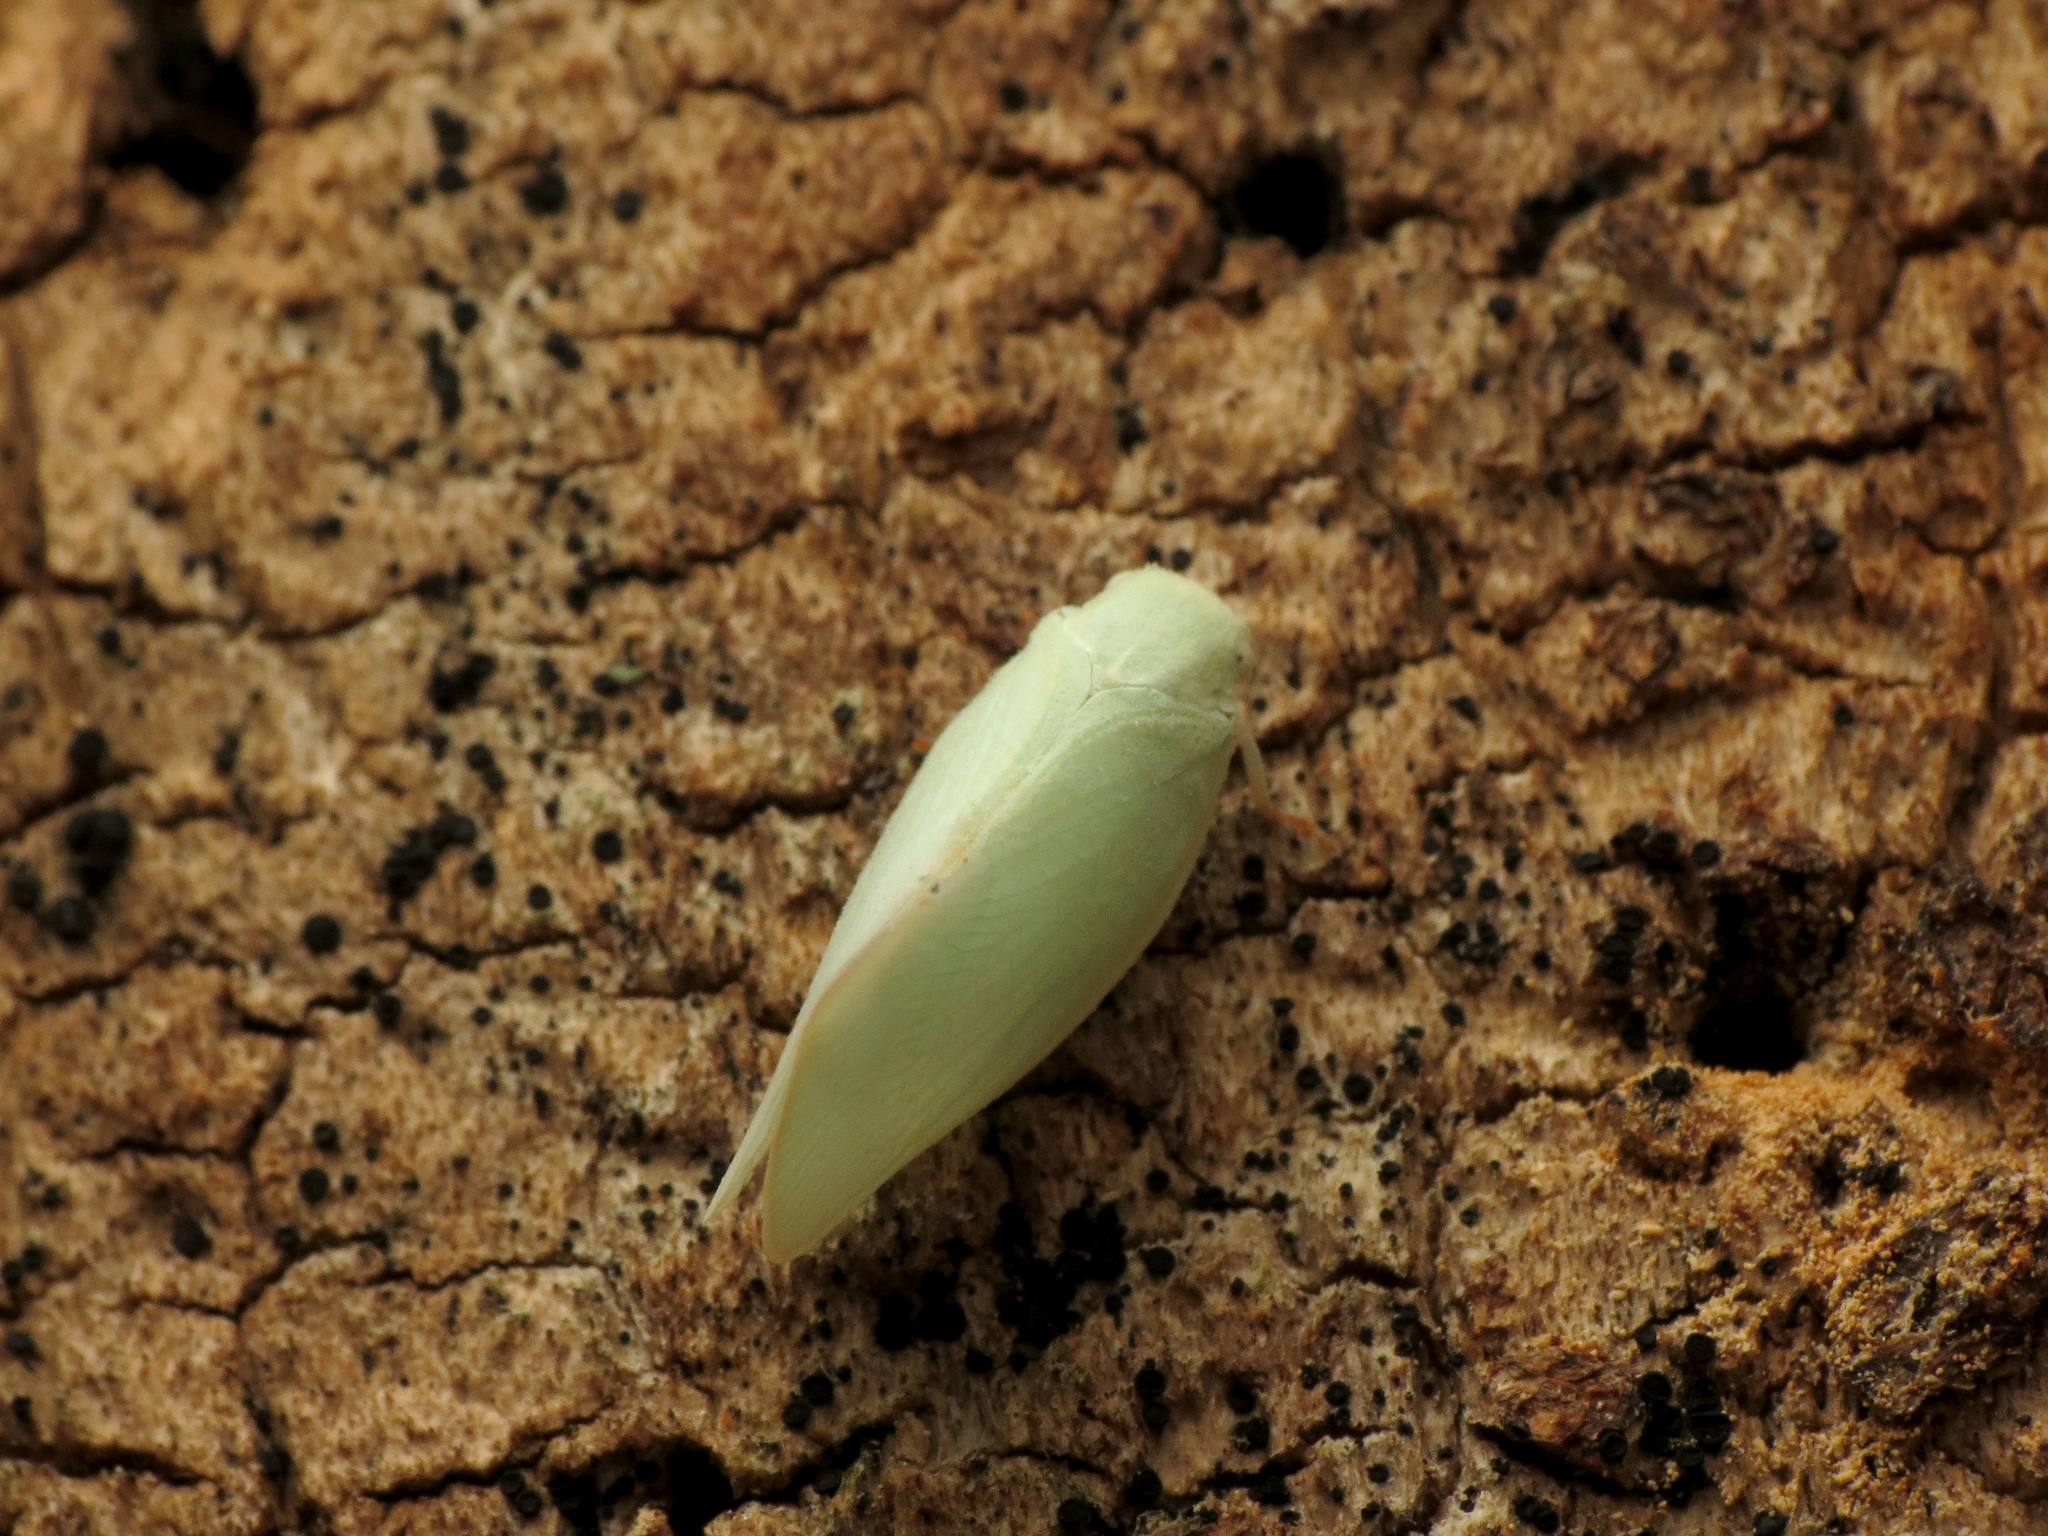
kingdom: Animalia
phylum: Arthropoda
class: Insecta
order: Hemiptera
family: Flatidae
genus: Flatormenis
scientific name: Flatormenis proxima
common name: Northern flatid planthopper
